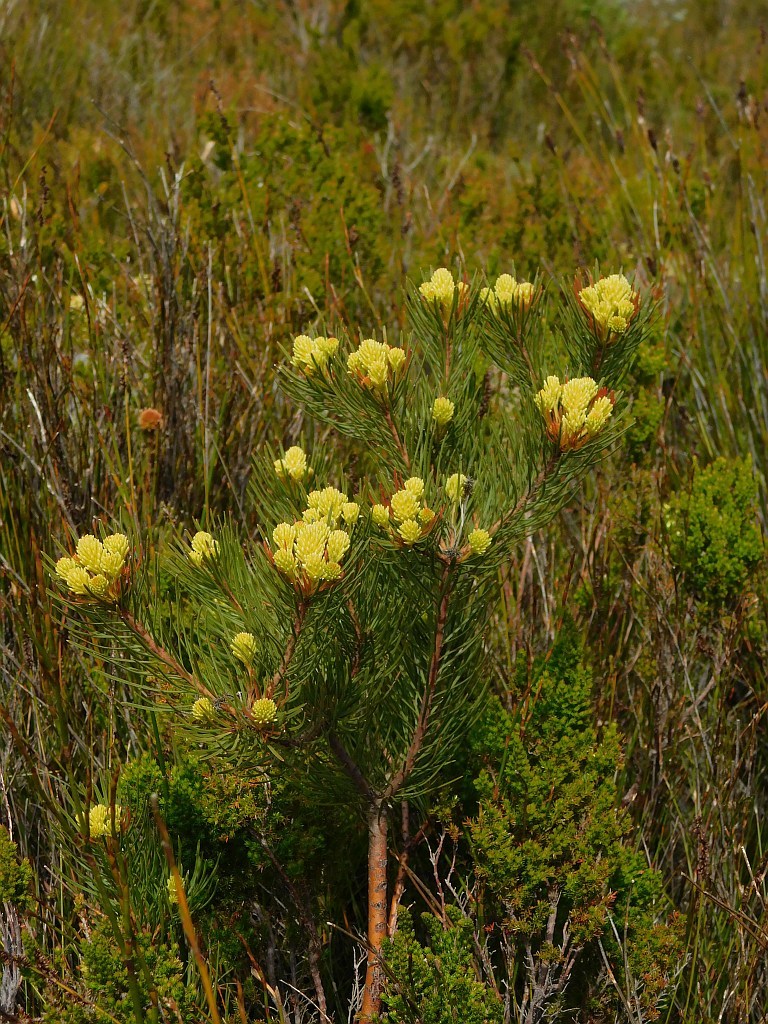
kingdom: Plantae
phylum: Tracheophyta
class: Magnoliopsida
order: Proteales
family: Proteaceae
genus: Aulax
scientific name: Aulax cancellata
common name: Channel-leaf featherbush
